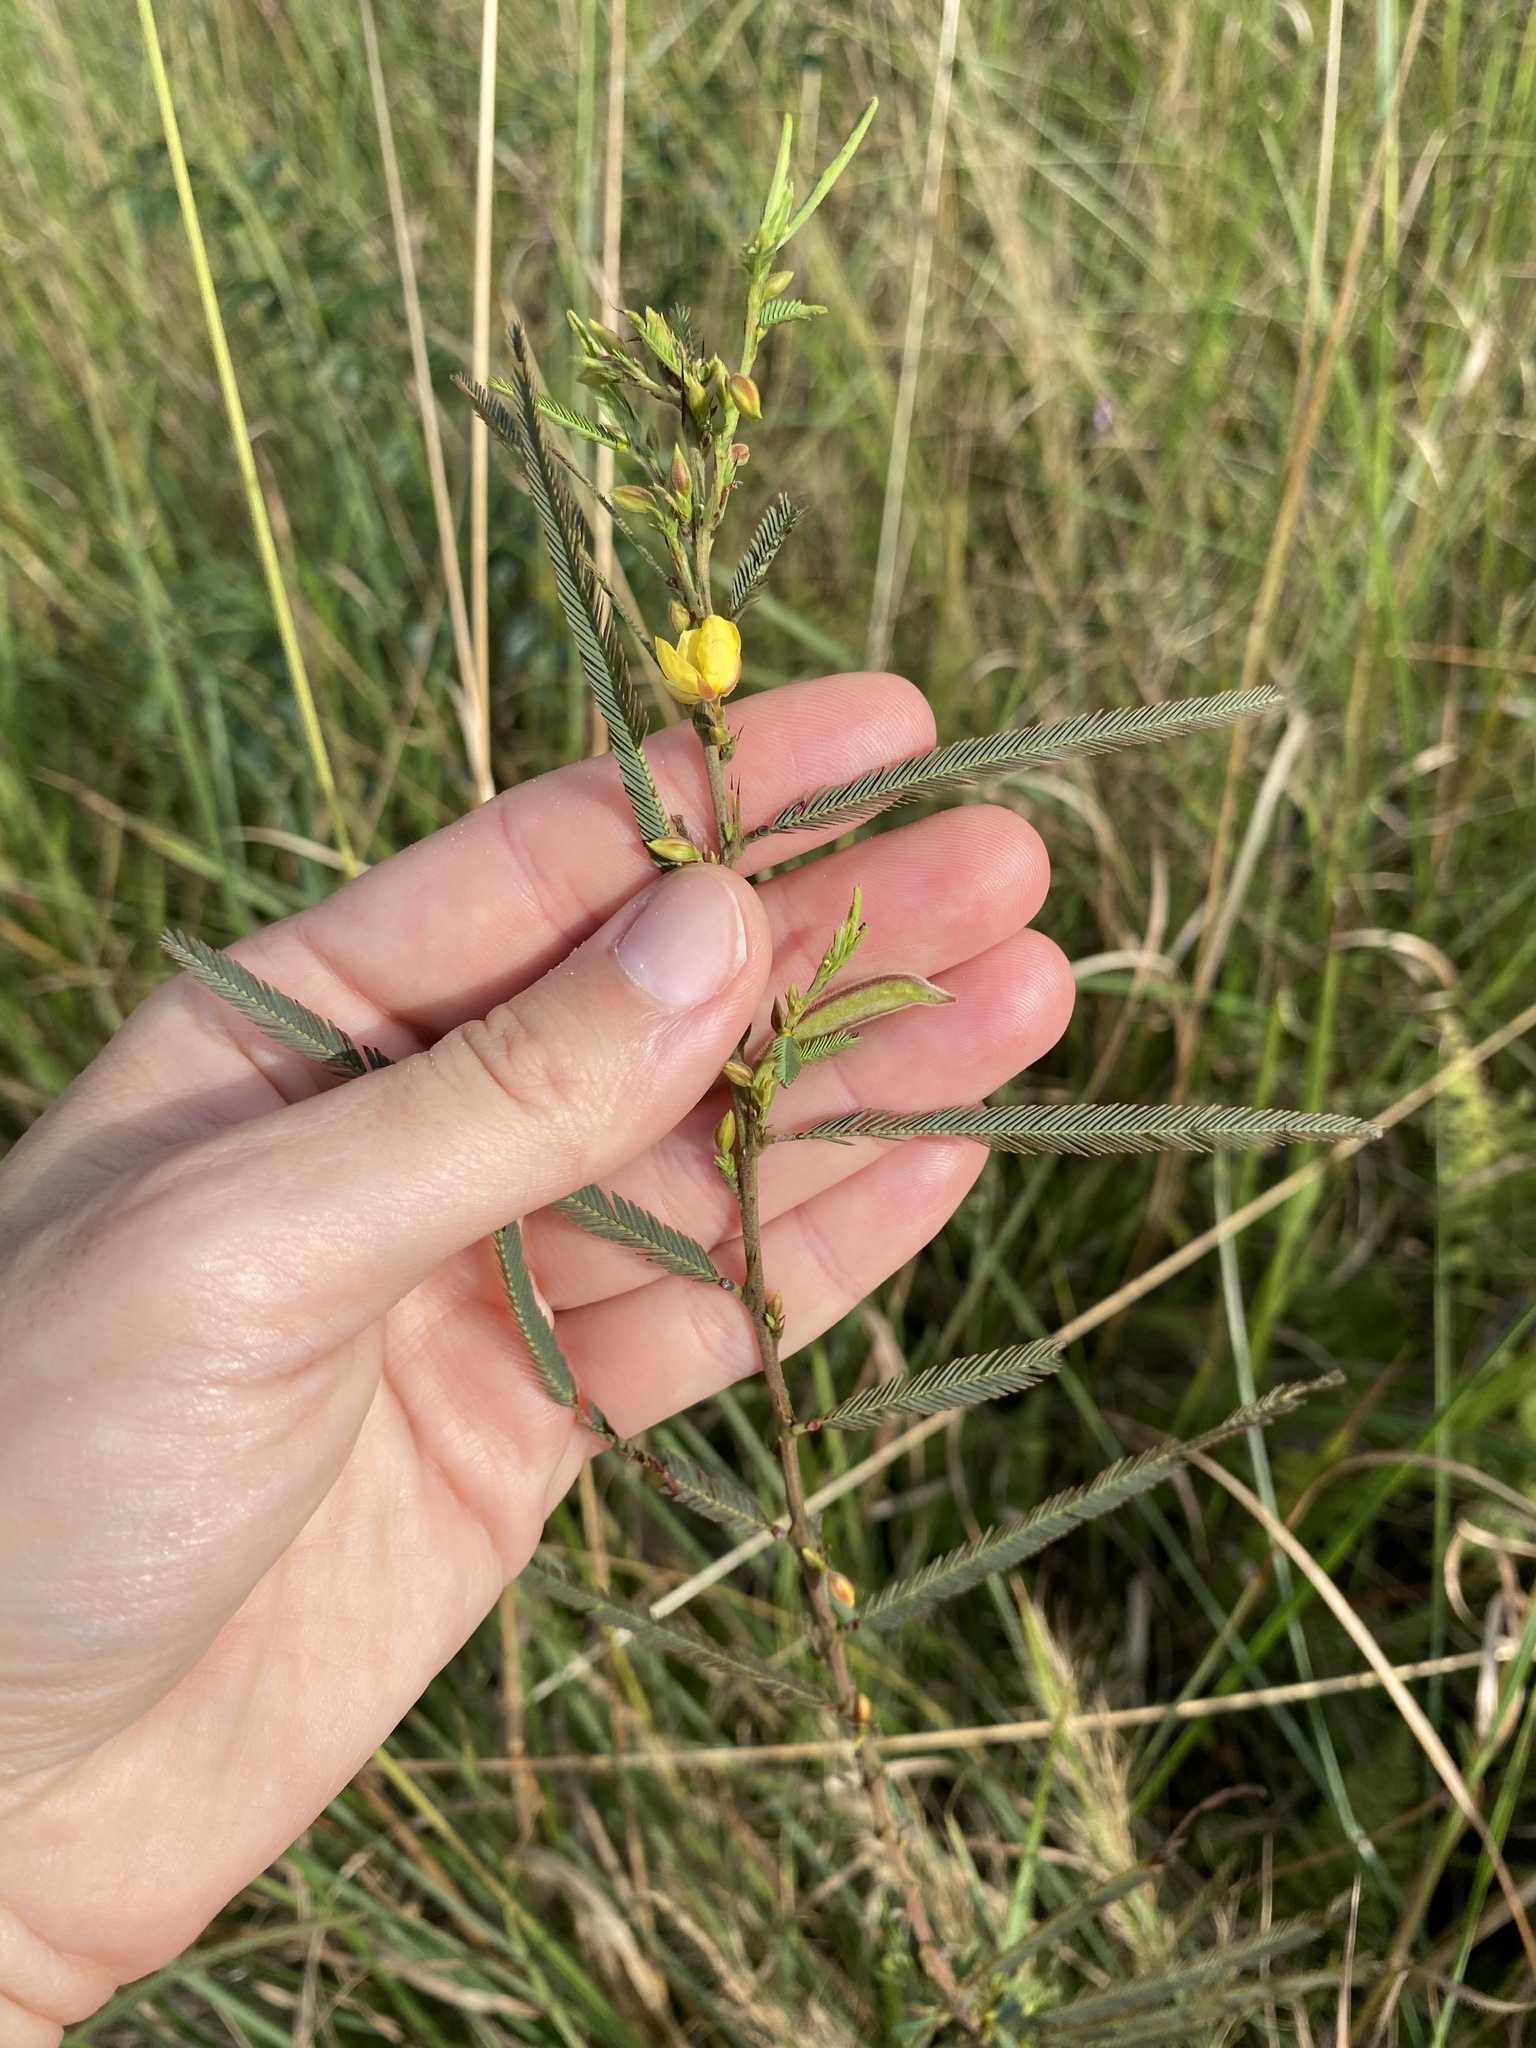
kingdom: Plantae
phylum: Tracheophyta
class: Magnoliopsida
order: Fabales
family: Fabaceae
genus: Chamaecrista
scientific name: Chamaecrista mimosoides
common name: Fish-bone cassia
